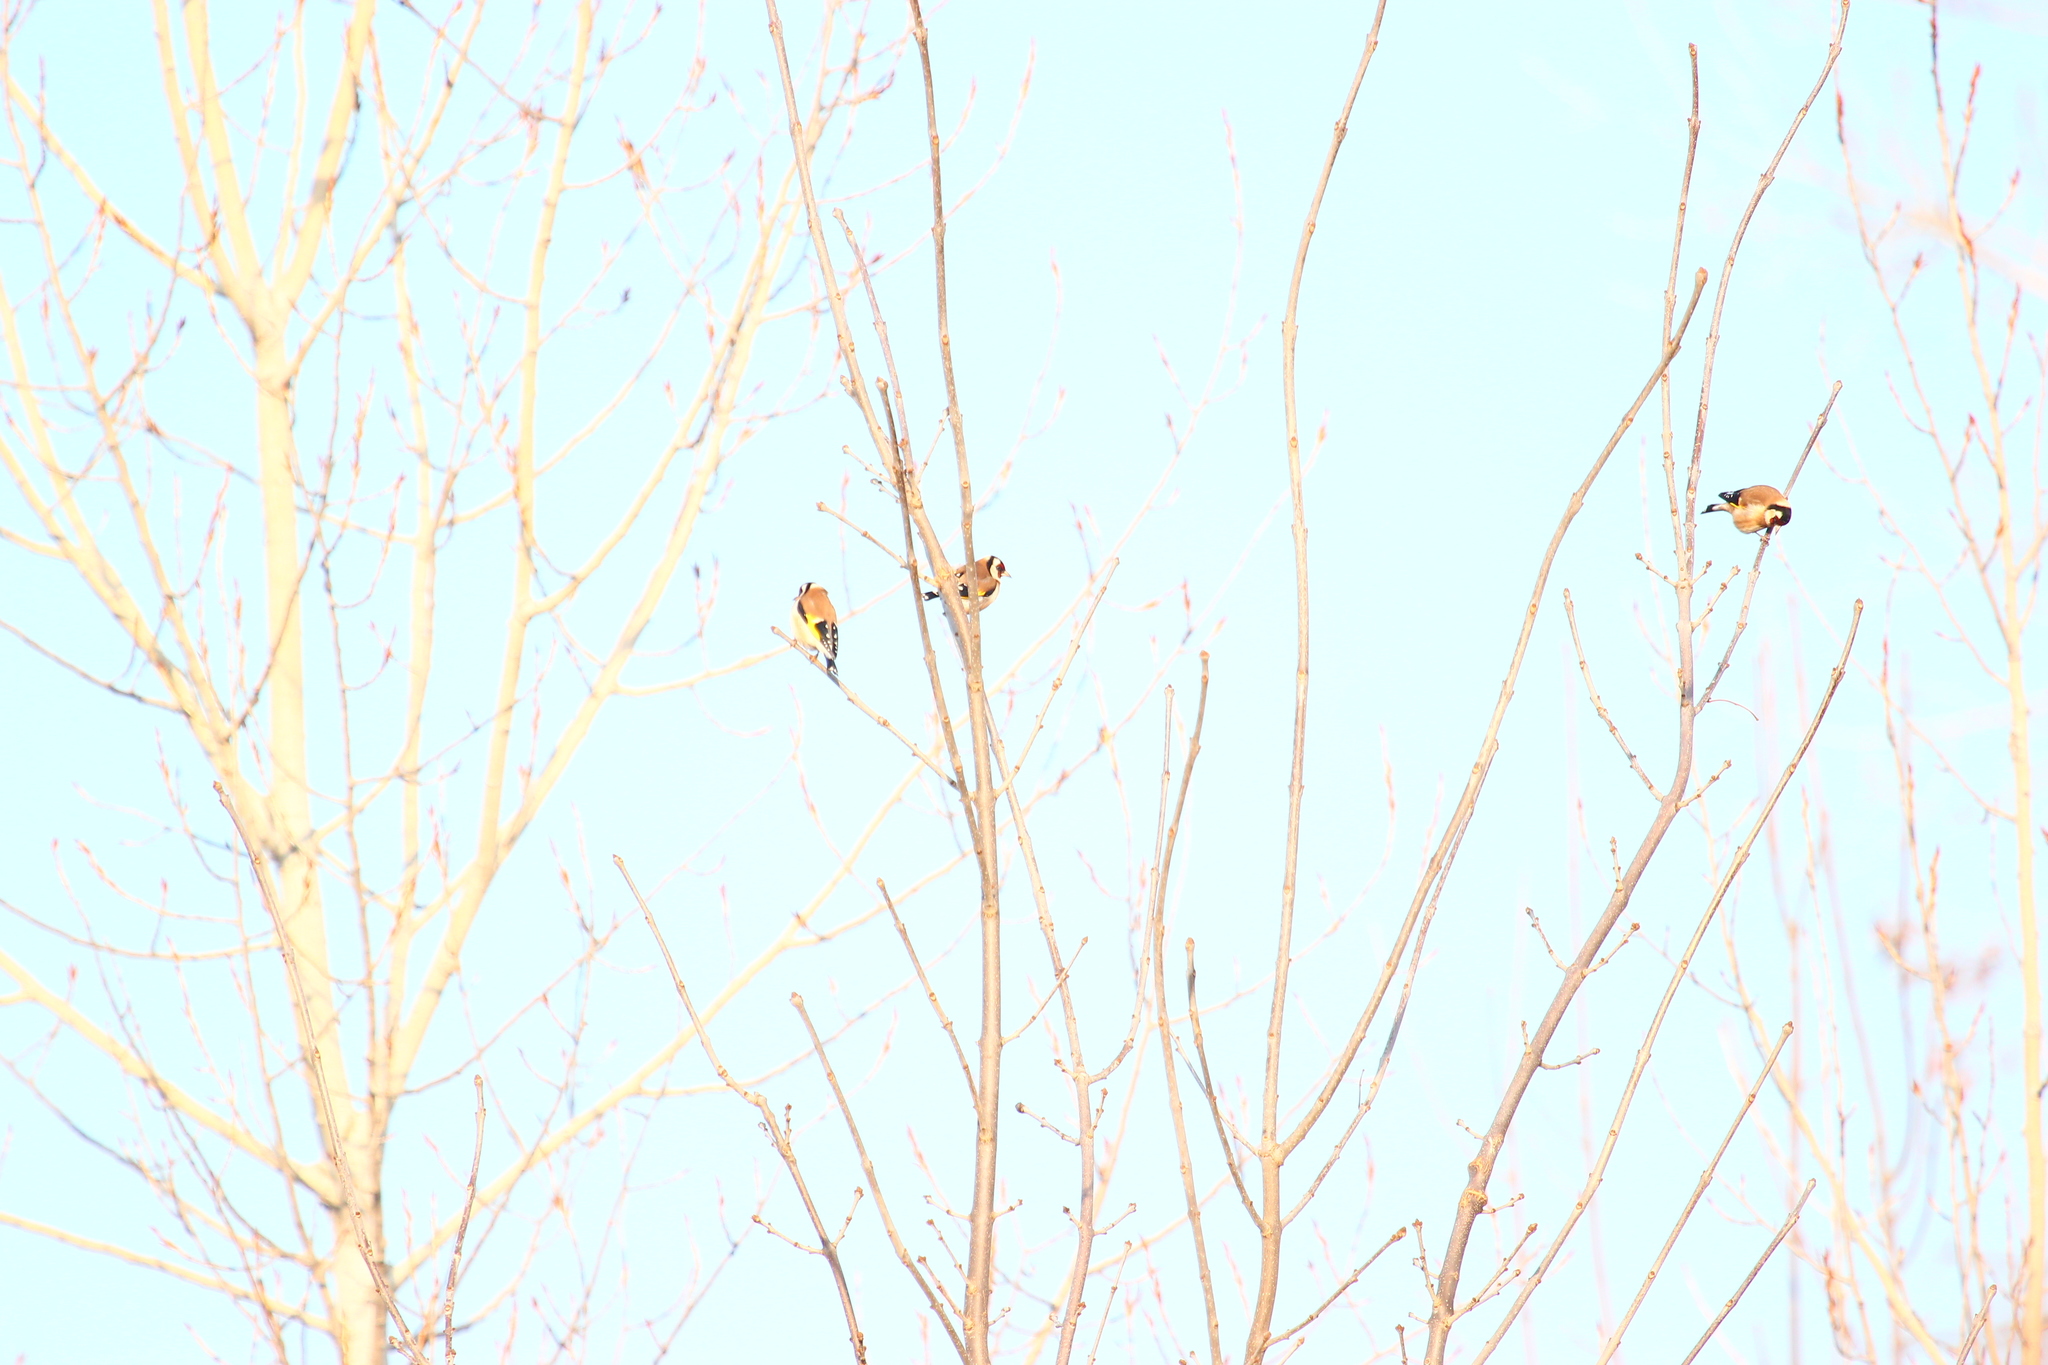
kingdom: Animalia
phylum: Chordata
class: Aves
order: Passeriformes
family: Fringillidae
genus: Carduelis
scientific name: Carduelis carduelis
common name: European goldfinch
